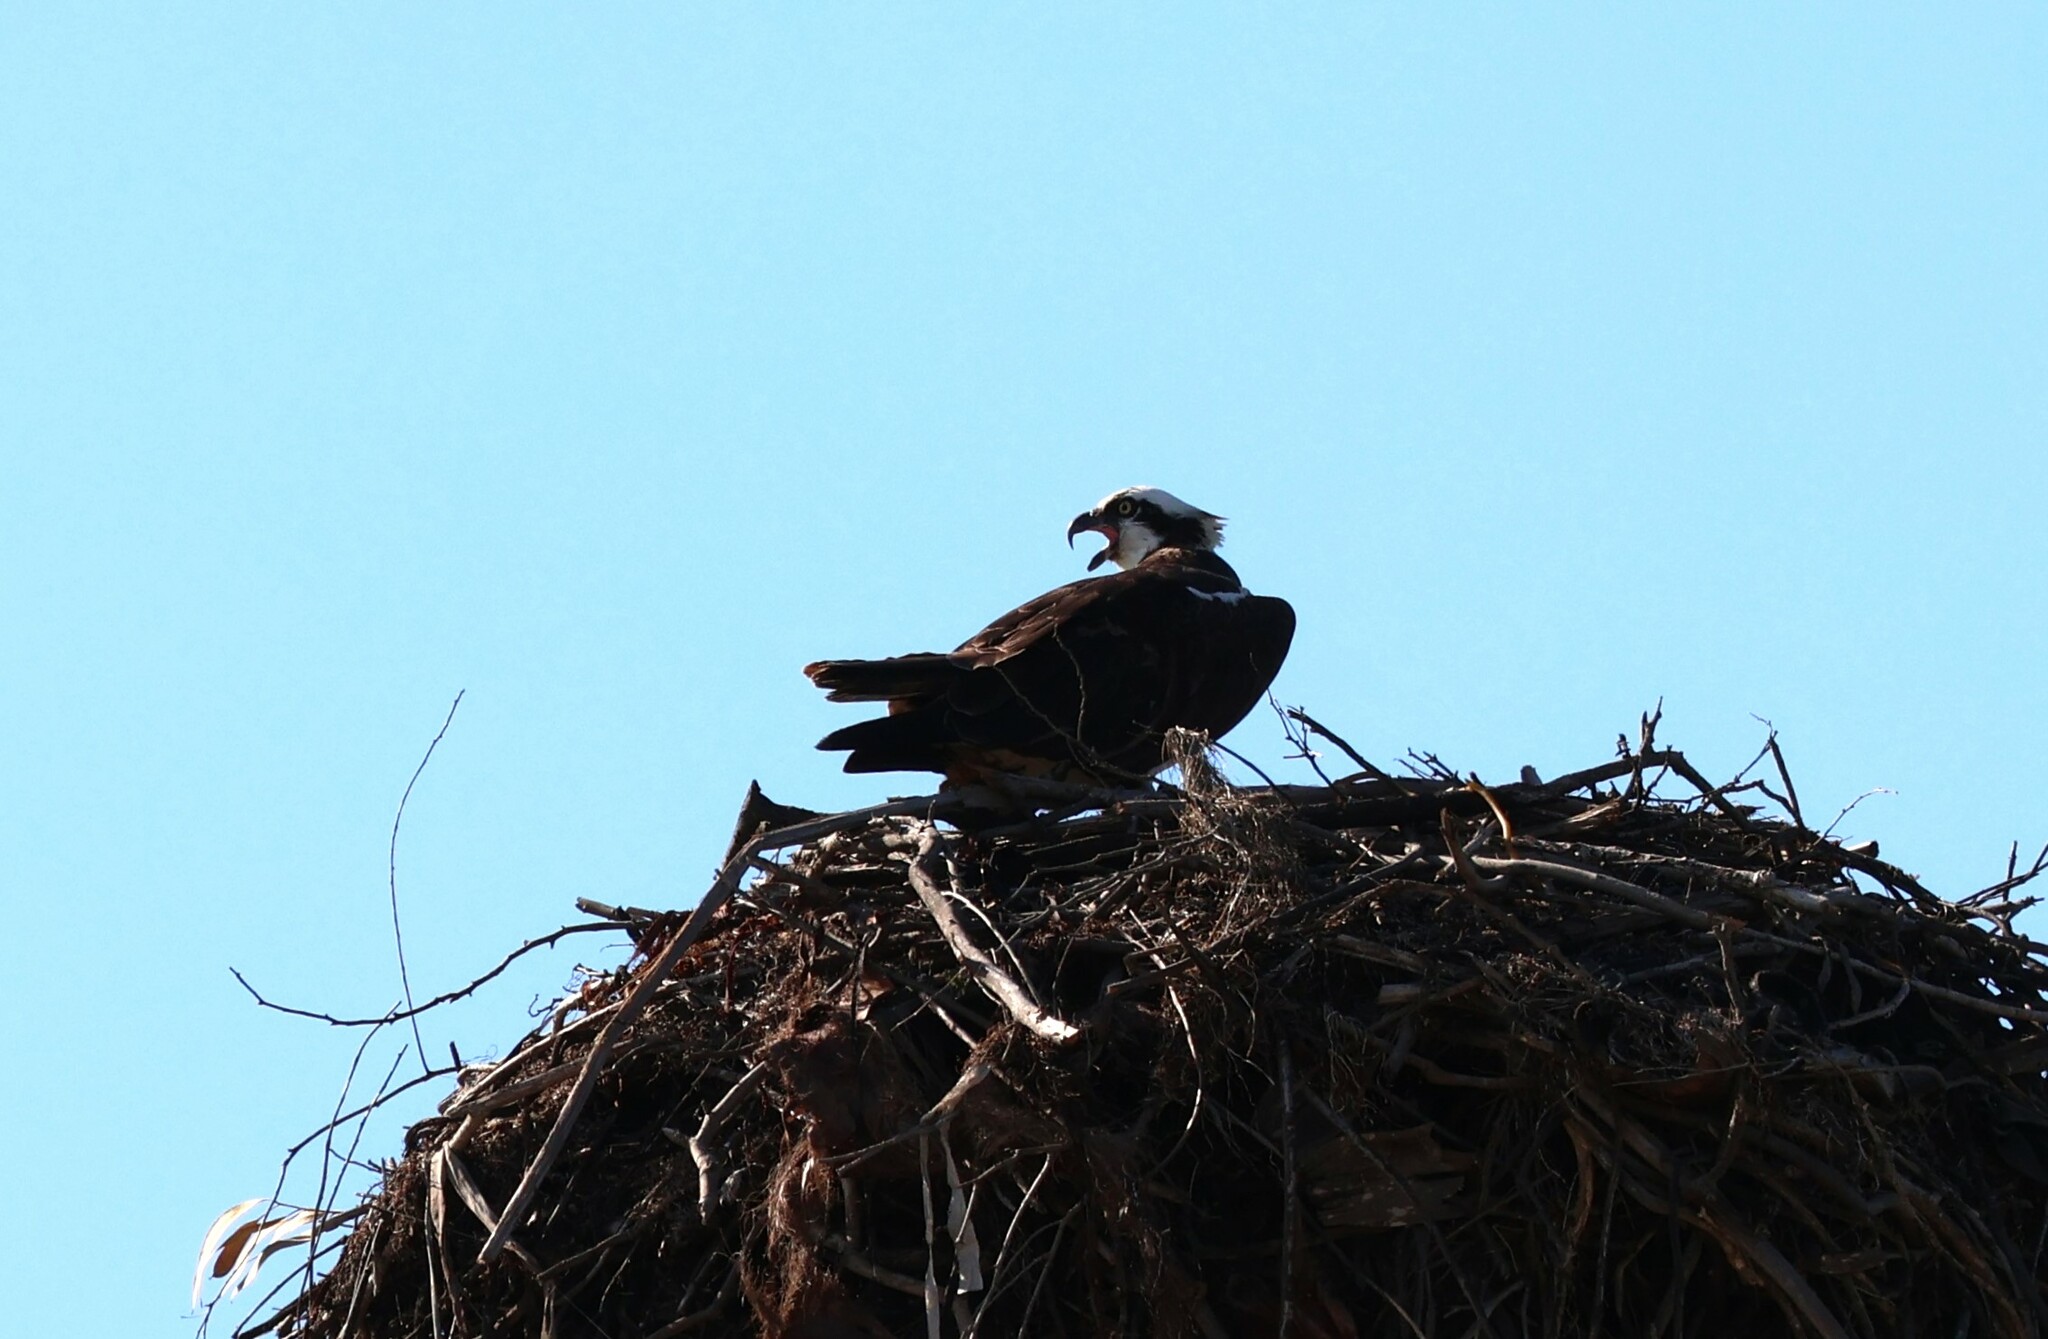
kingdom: Animalia
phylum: Chordata
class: Aves
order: Accipitriformes
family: Pandionidae
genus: Pandion
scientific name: Pandion haliaetus
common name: Osprey
